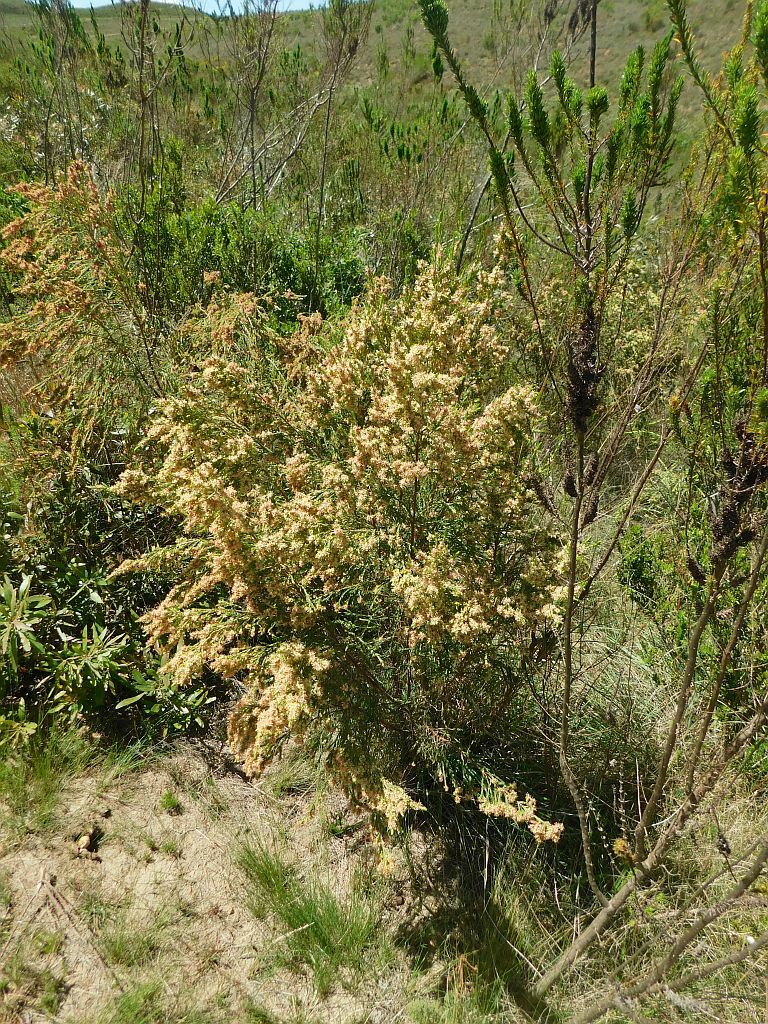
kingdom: Plantae
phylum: Tracheophyta
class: Magnoliopsida
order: Malvales
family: Thymelaeaceae
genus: Passerina
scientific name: Passerina corymbosa
